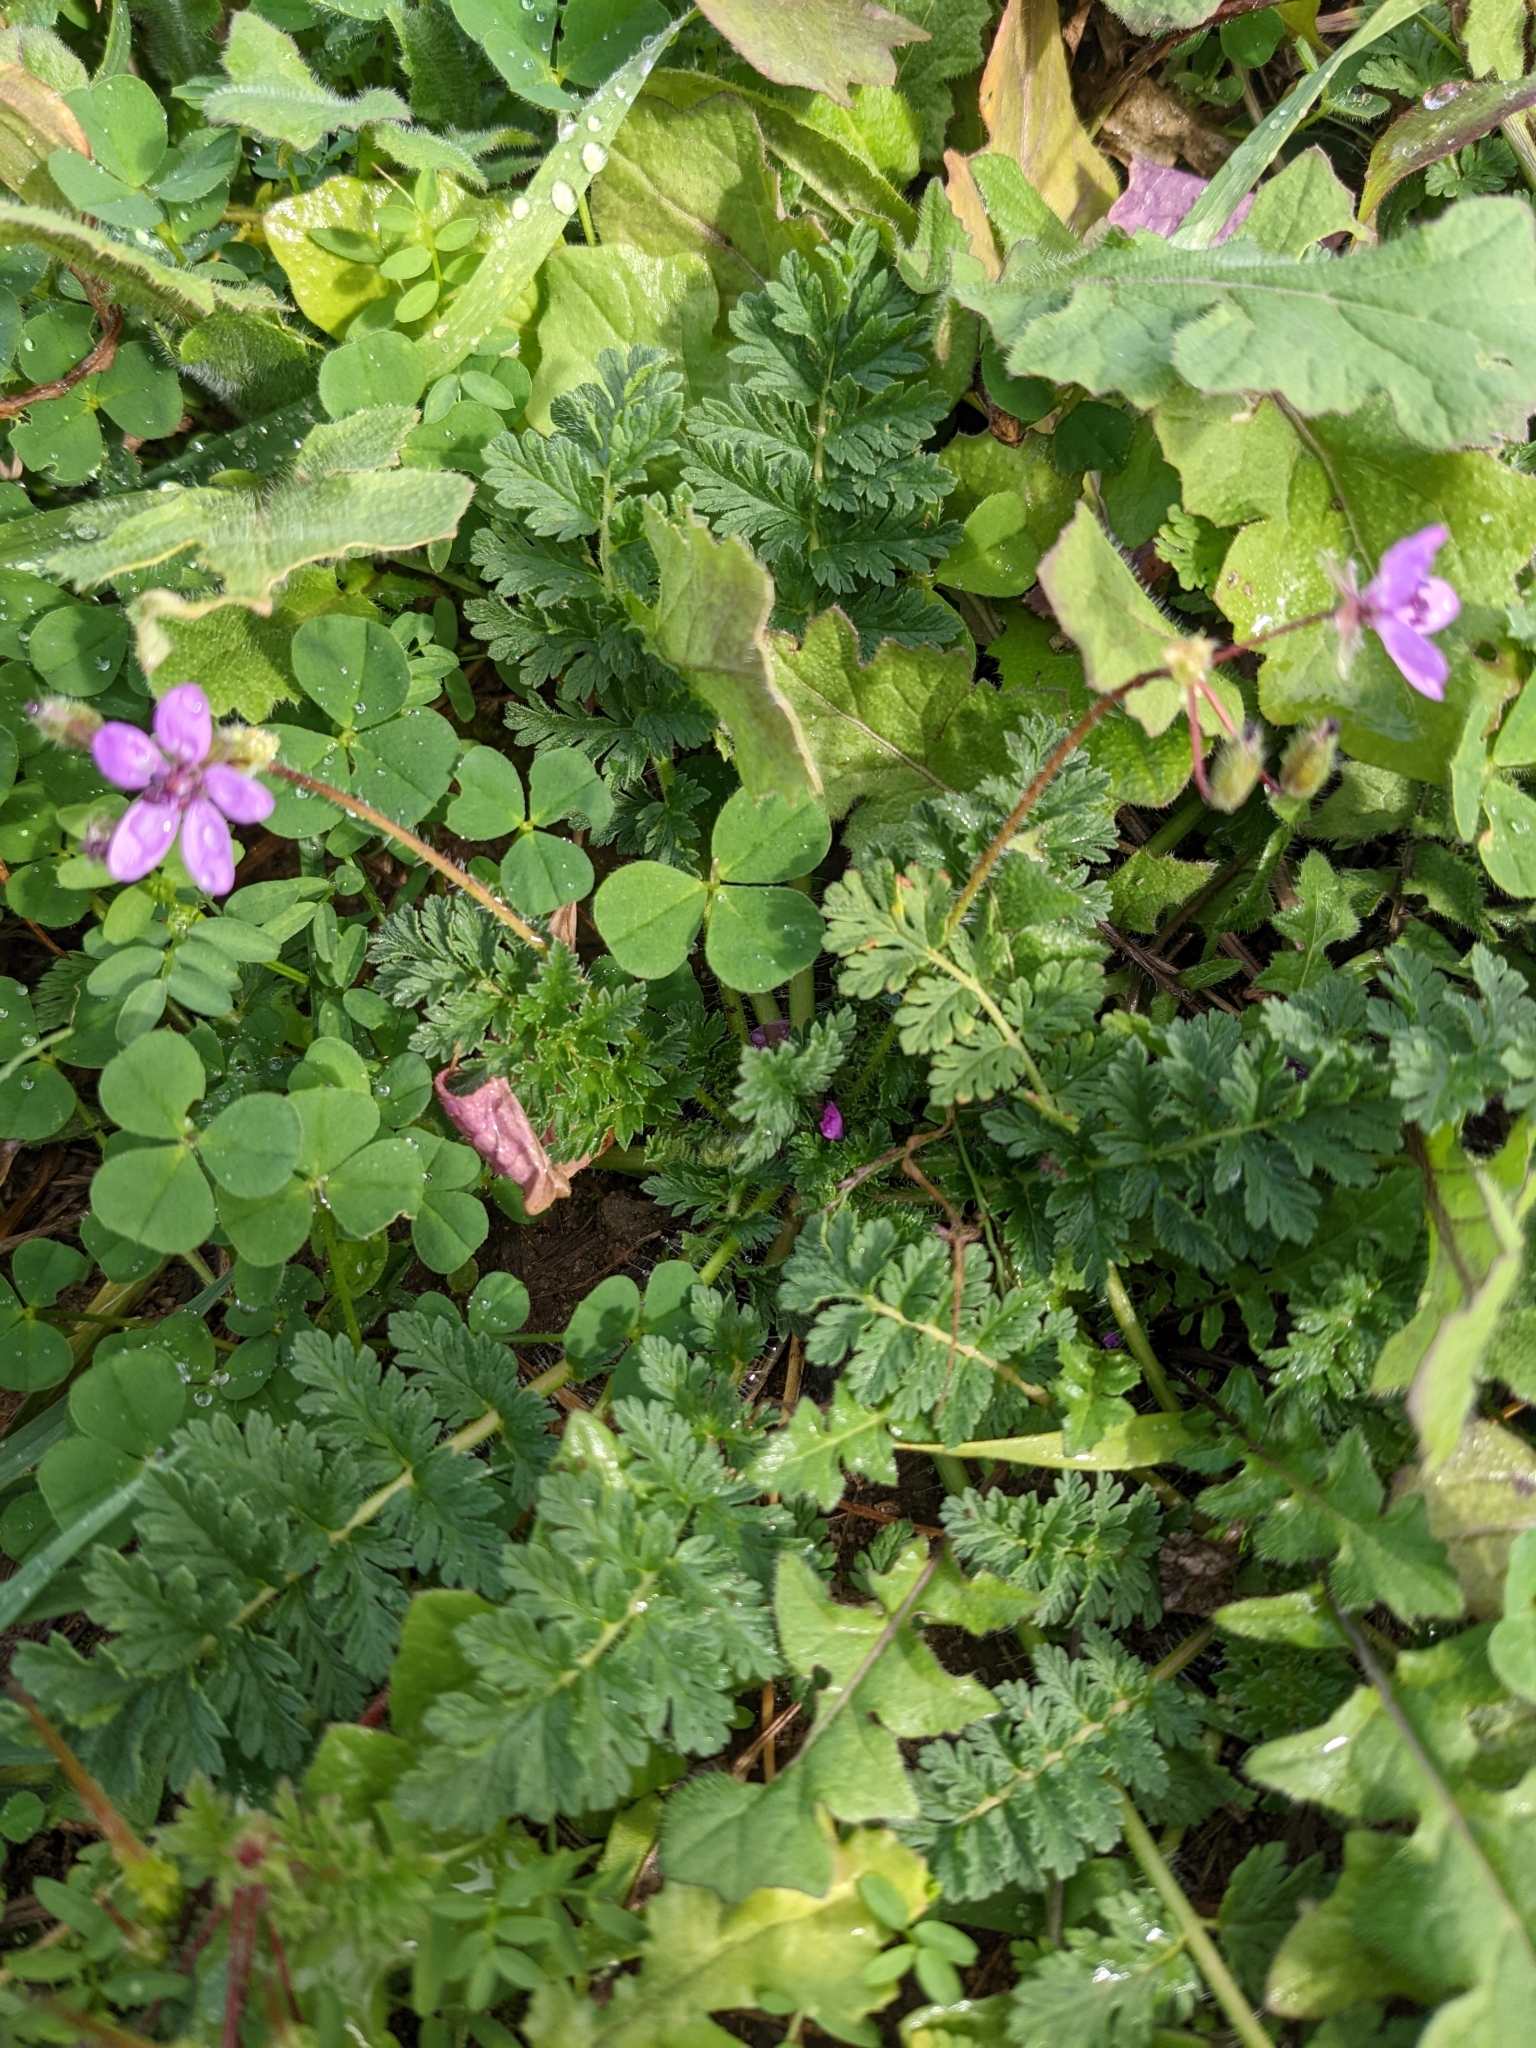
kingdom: Plantae
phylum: Tracheophyta
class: Magnoliopsida
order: Geraniales
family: Geraniaceae
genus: Erodium
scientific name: Erodium cicutarium
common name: Common stork's-bill
